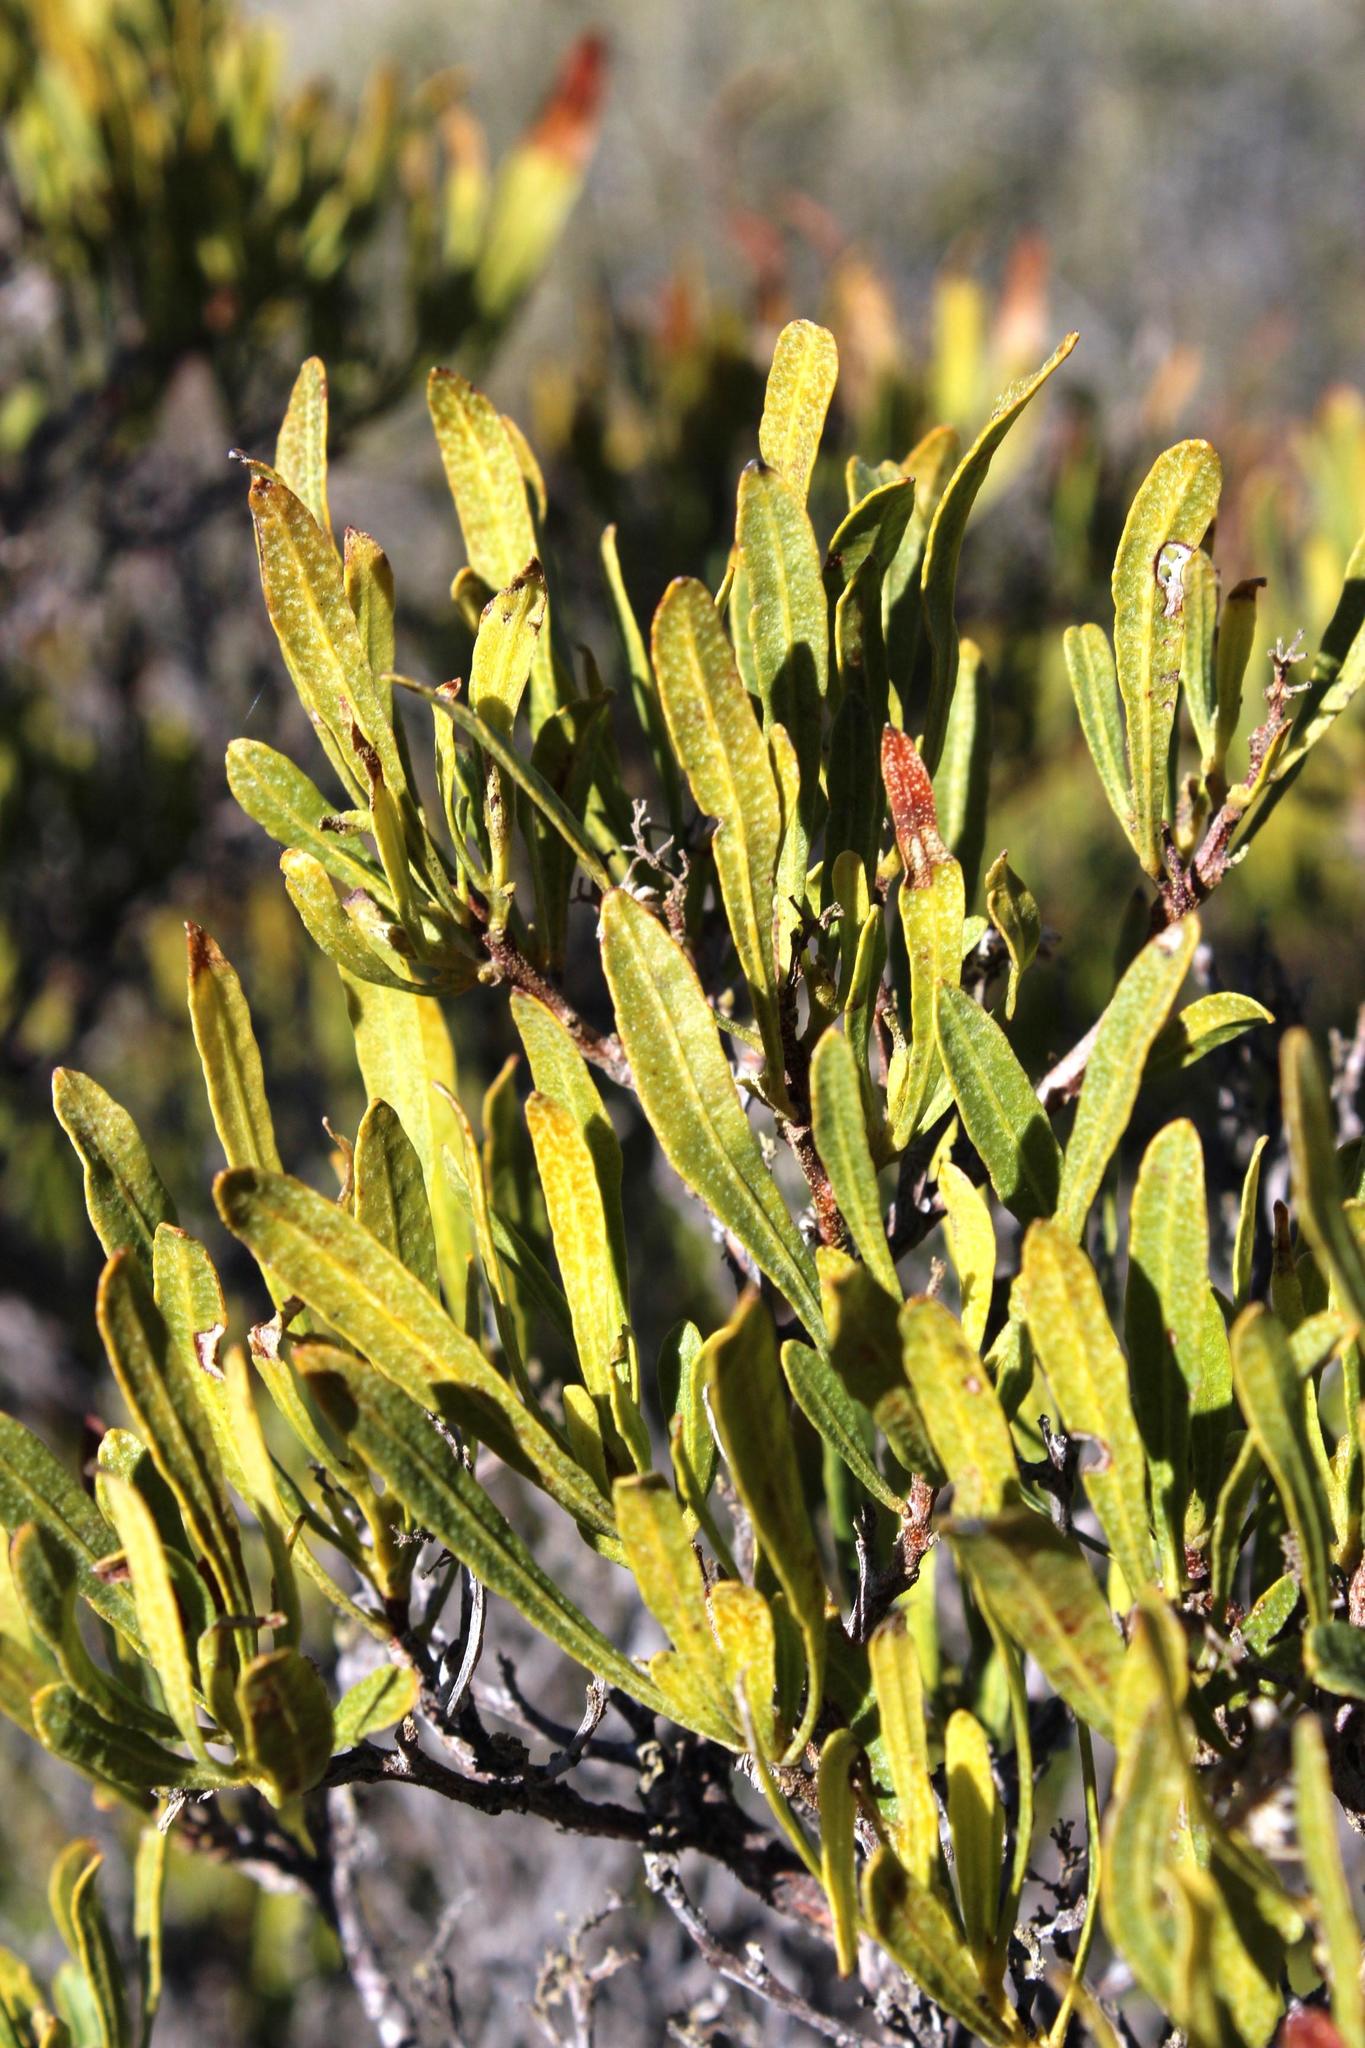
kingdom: Plantae
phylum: Tracheophyta
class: Magnoliopsida
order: Sapindales
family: Sapindaceae
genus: Dodonaea
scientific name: Dodonaea viscosa
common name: Hopbush
